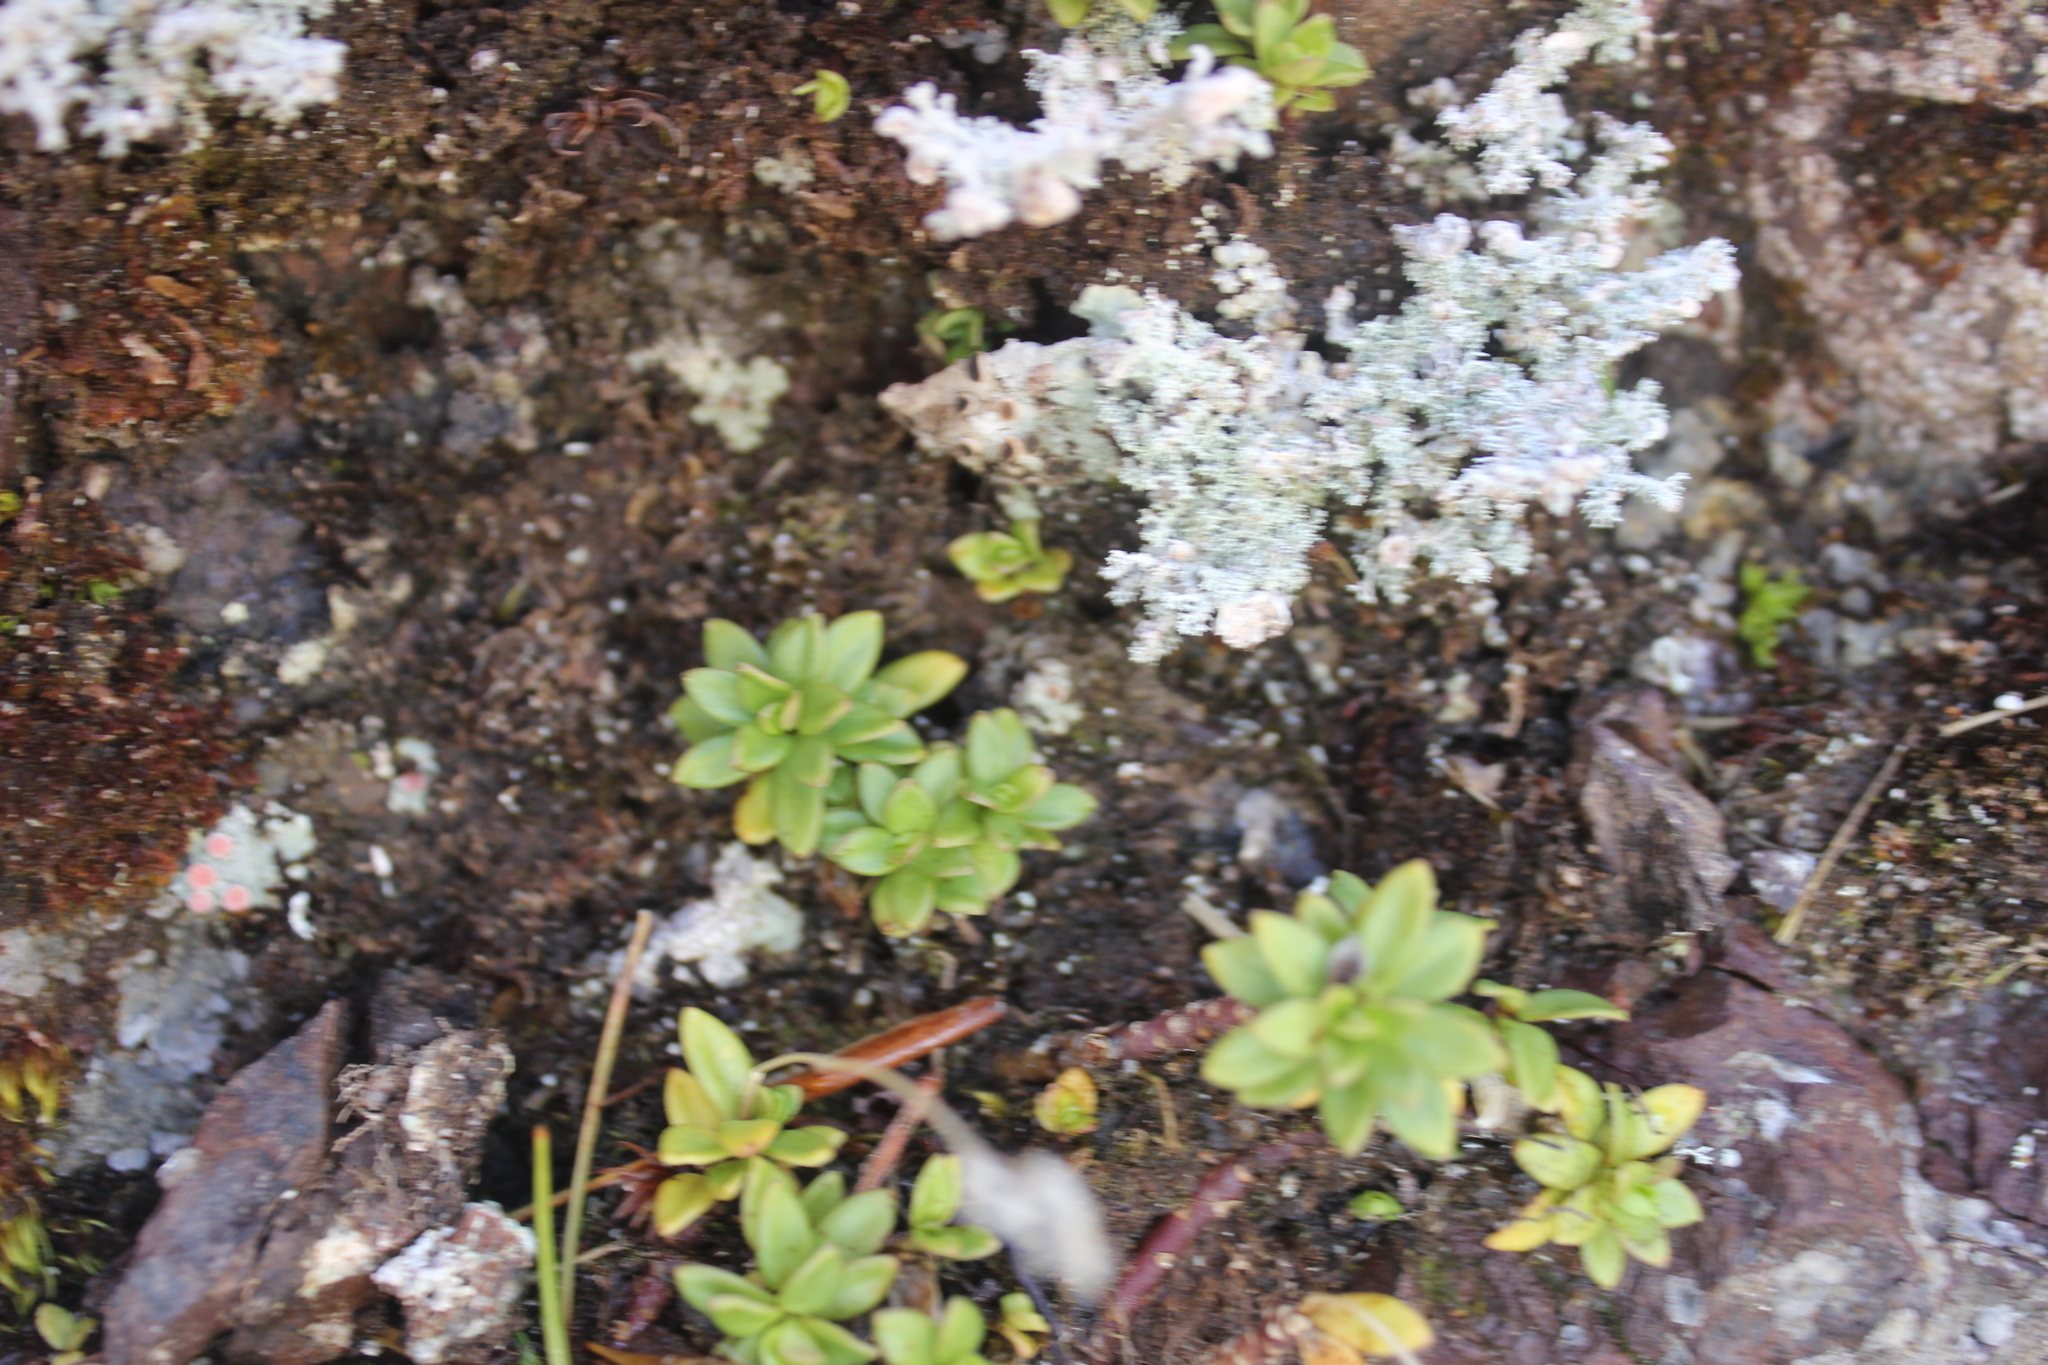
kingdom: Plantae
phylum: Tracheophyta
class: Magnoliopsida
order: Asterales
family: Stylidiaceae
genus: Forstera
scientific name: Forstera tenella
